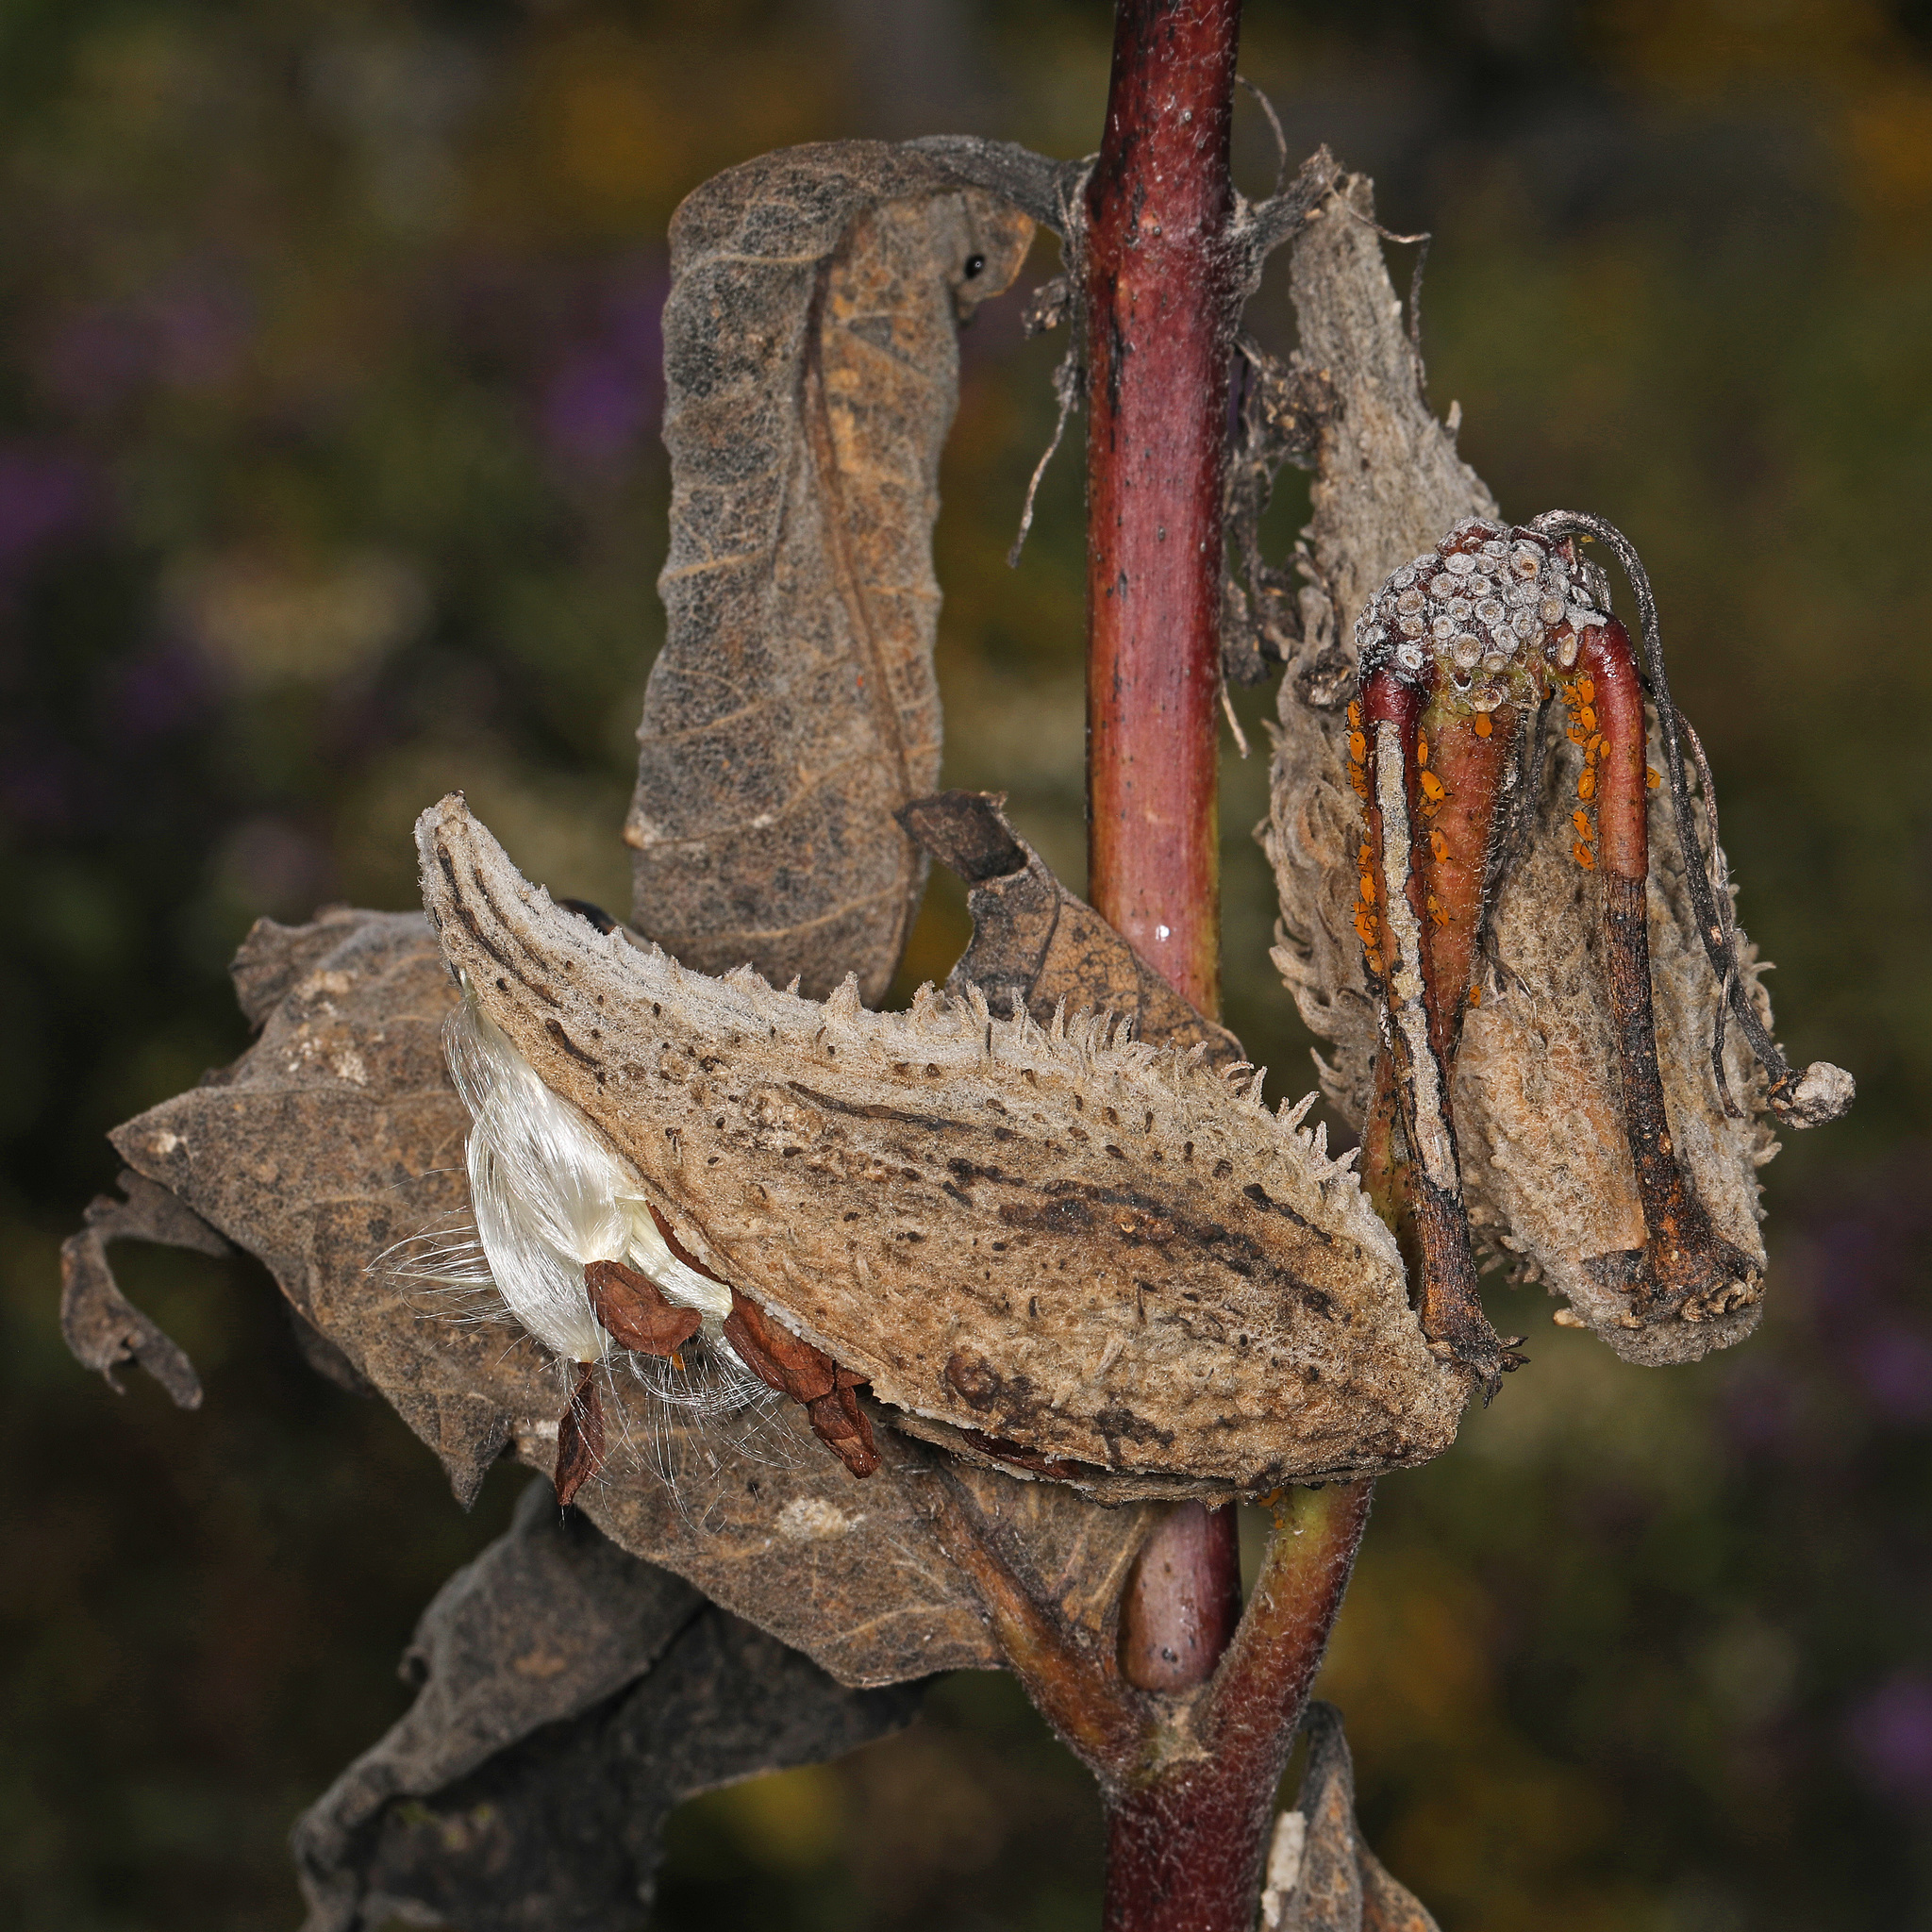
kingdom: Plantae
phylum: Tracheophyta
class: Magnoliopsida
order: Gentianales
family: Apocynaceae
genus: Asclepias
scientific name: Asclepias syriaca
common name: Common milkweed
